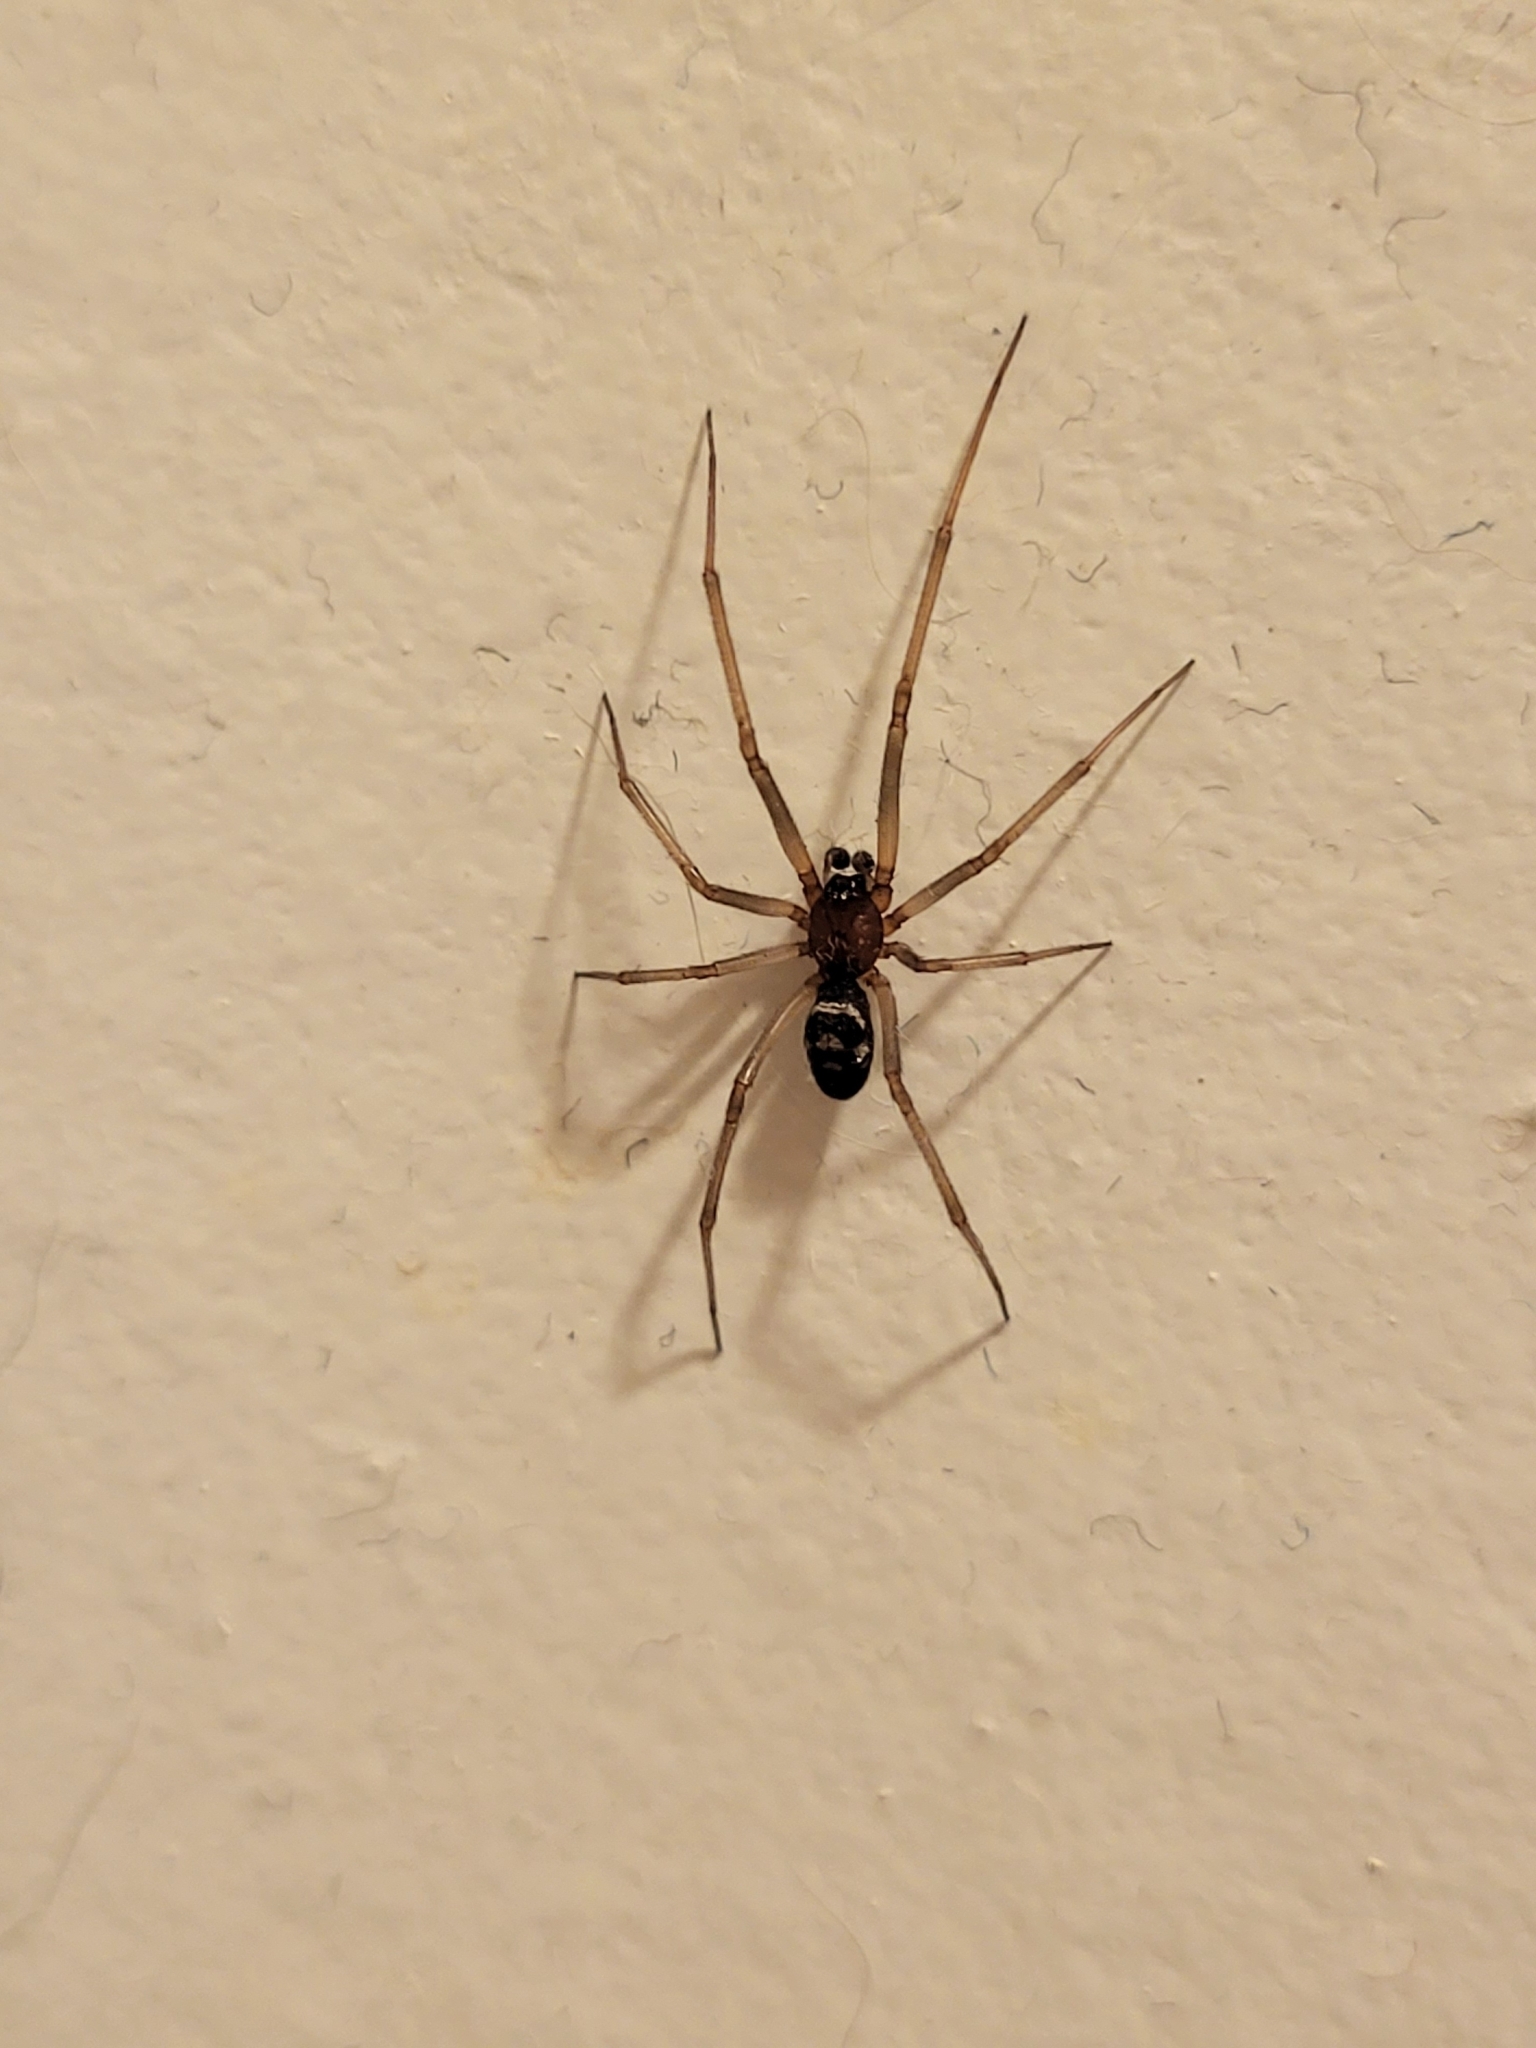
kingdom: Animalia
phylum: Arthropoda
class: Arachnida
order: Araneae
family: Theridiidae
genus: Steatoda
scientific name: Steatoda grossa
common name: False black widow
